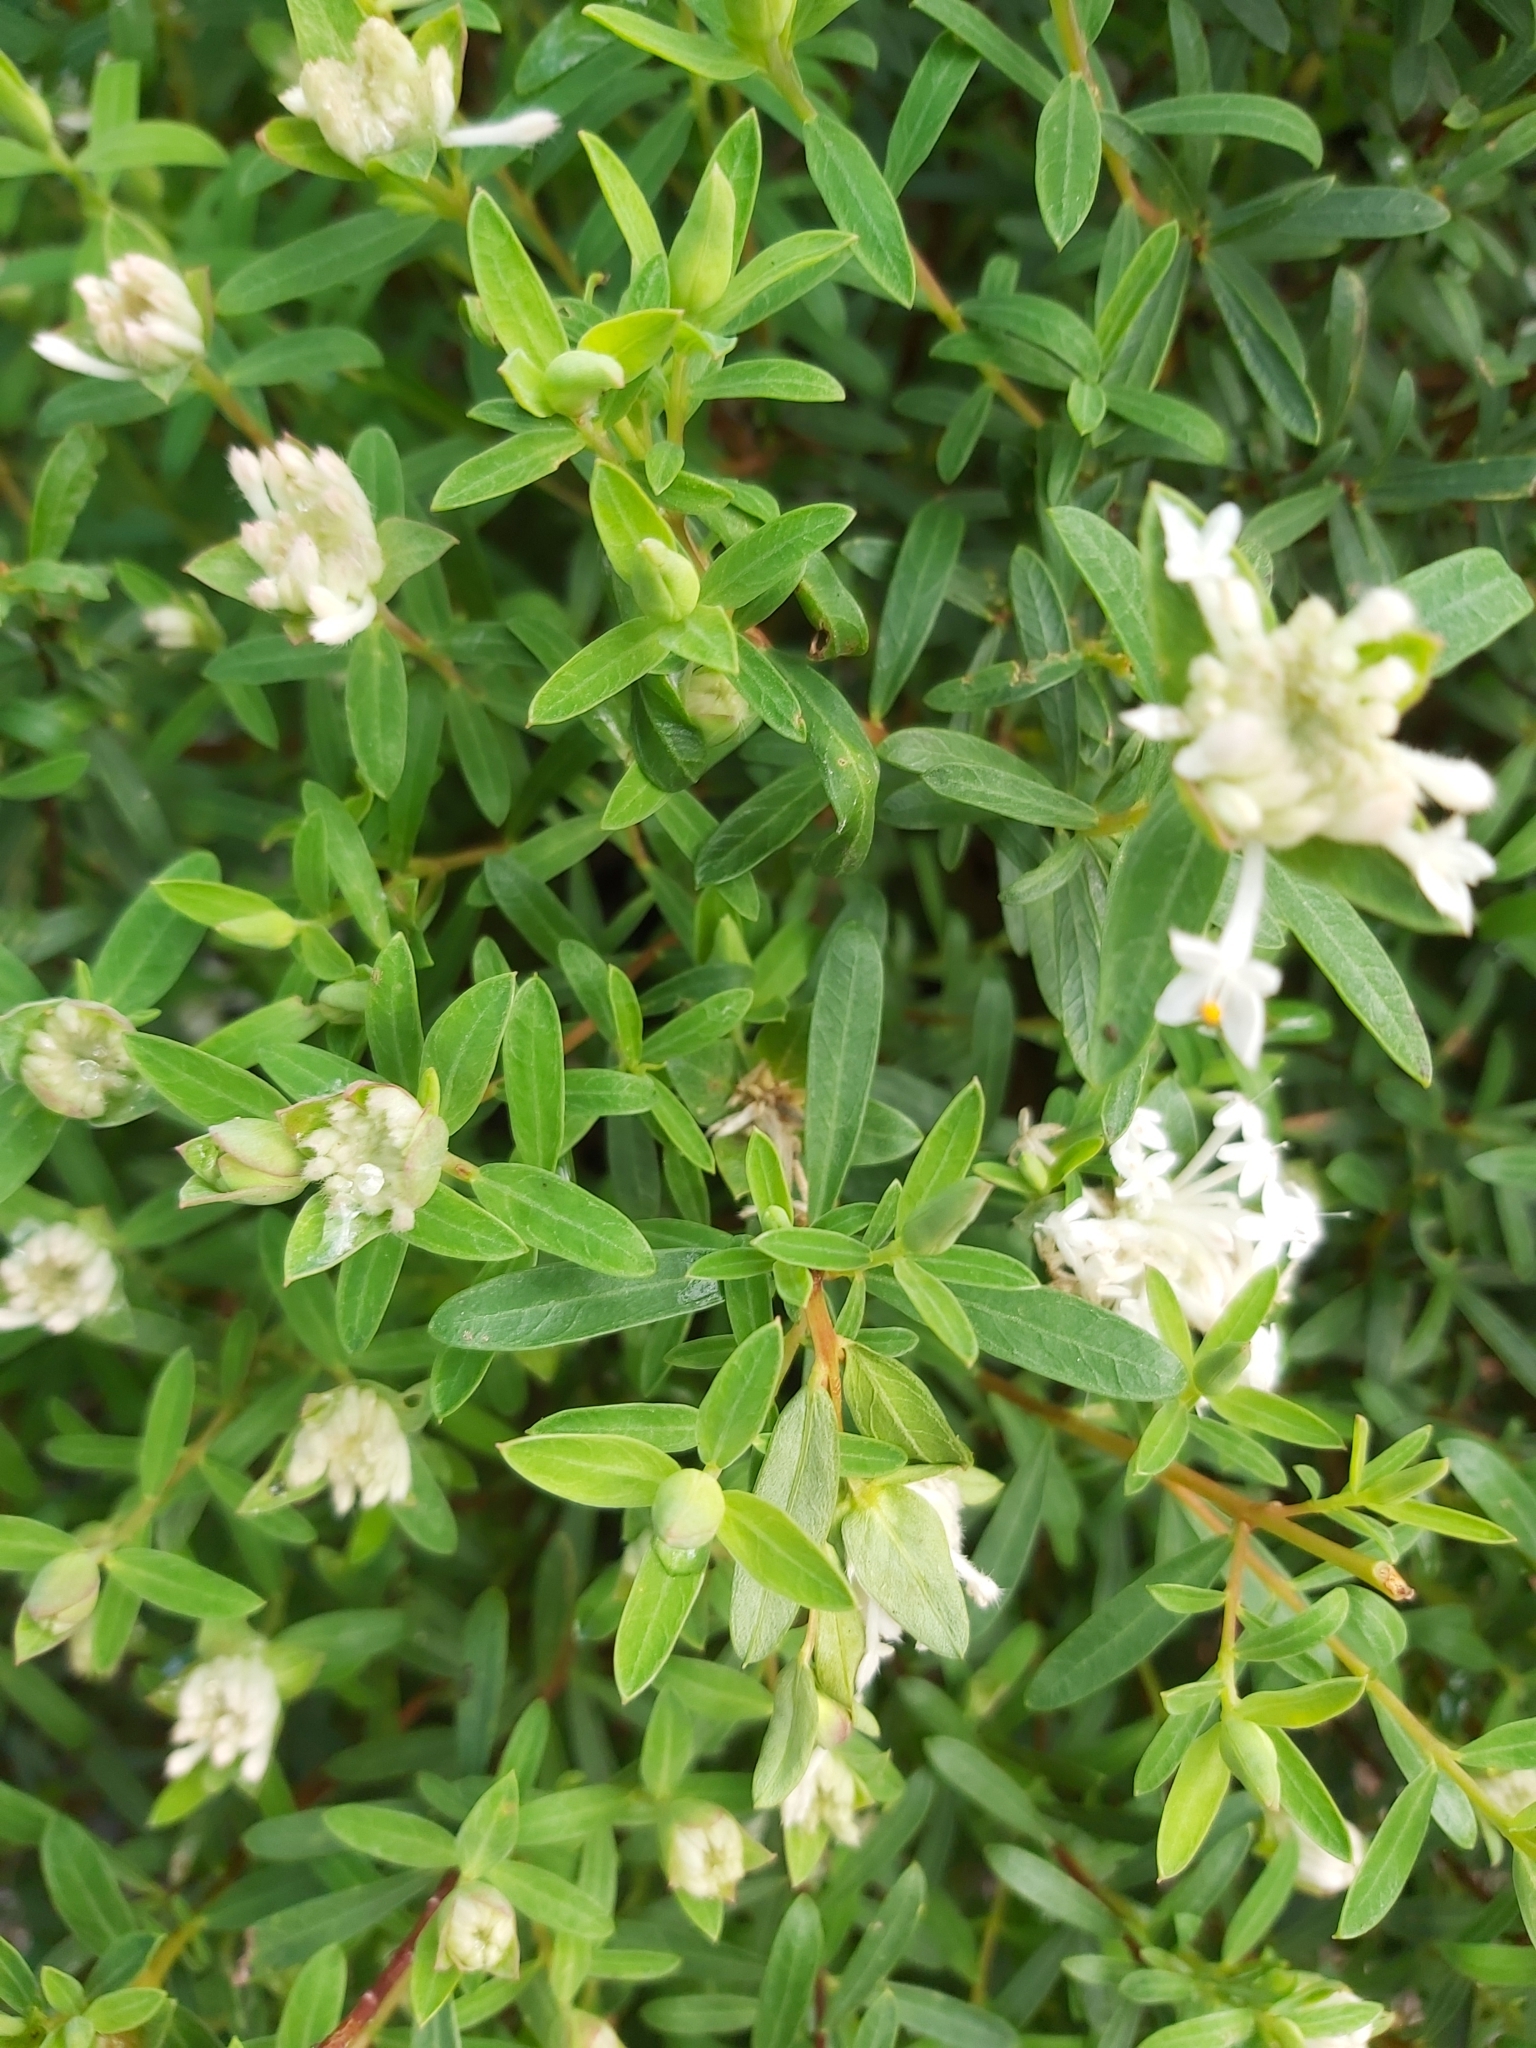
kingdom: Plantae
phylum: Tracheophyta
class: Magnoliopsida
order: Malvales
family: Thymelaeaceae
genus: Pimelea
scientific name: Pimelea linifolia
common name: Queen-of-the-bush
